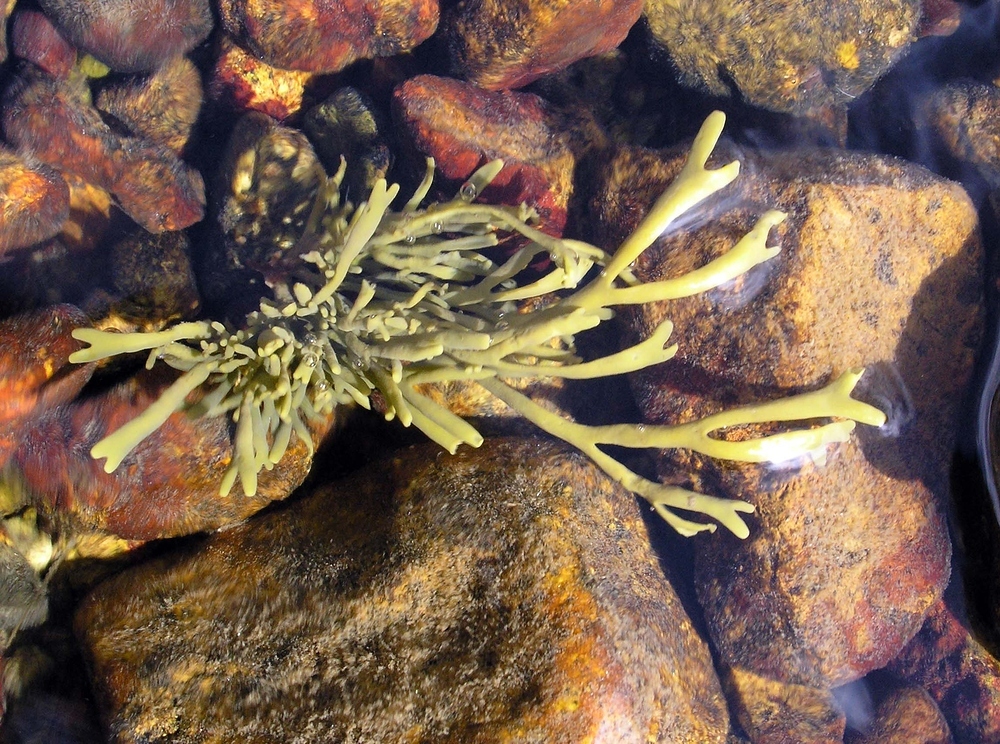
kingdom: Chromista
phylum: Ochrophyta
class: Phaeophyceae
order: Fucales
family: Fucaceae
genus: Pelvetia
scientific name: Pelvetia canaliculata
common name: Channelled wrack
